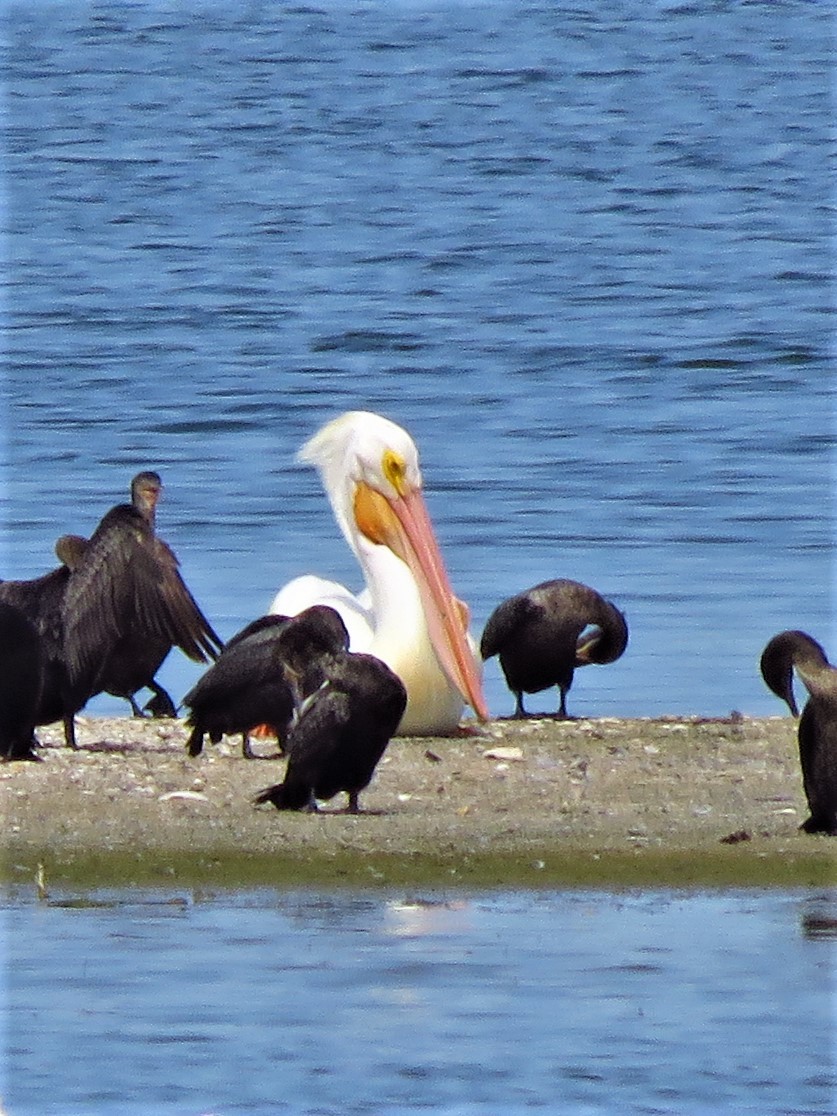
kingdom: Animalia
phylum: Chordata
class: Aves
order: Pelecaniformes
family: Pelecanidae
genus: Pelecanus
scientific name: Pelecanus erythrorhynchos
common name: American white pelican
